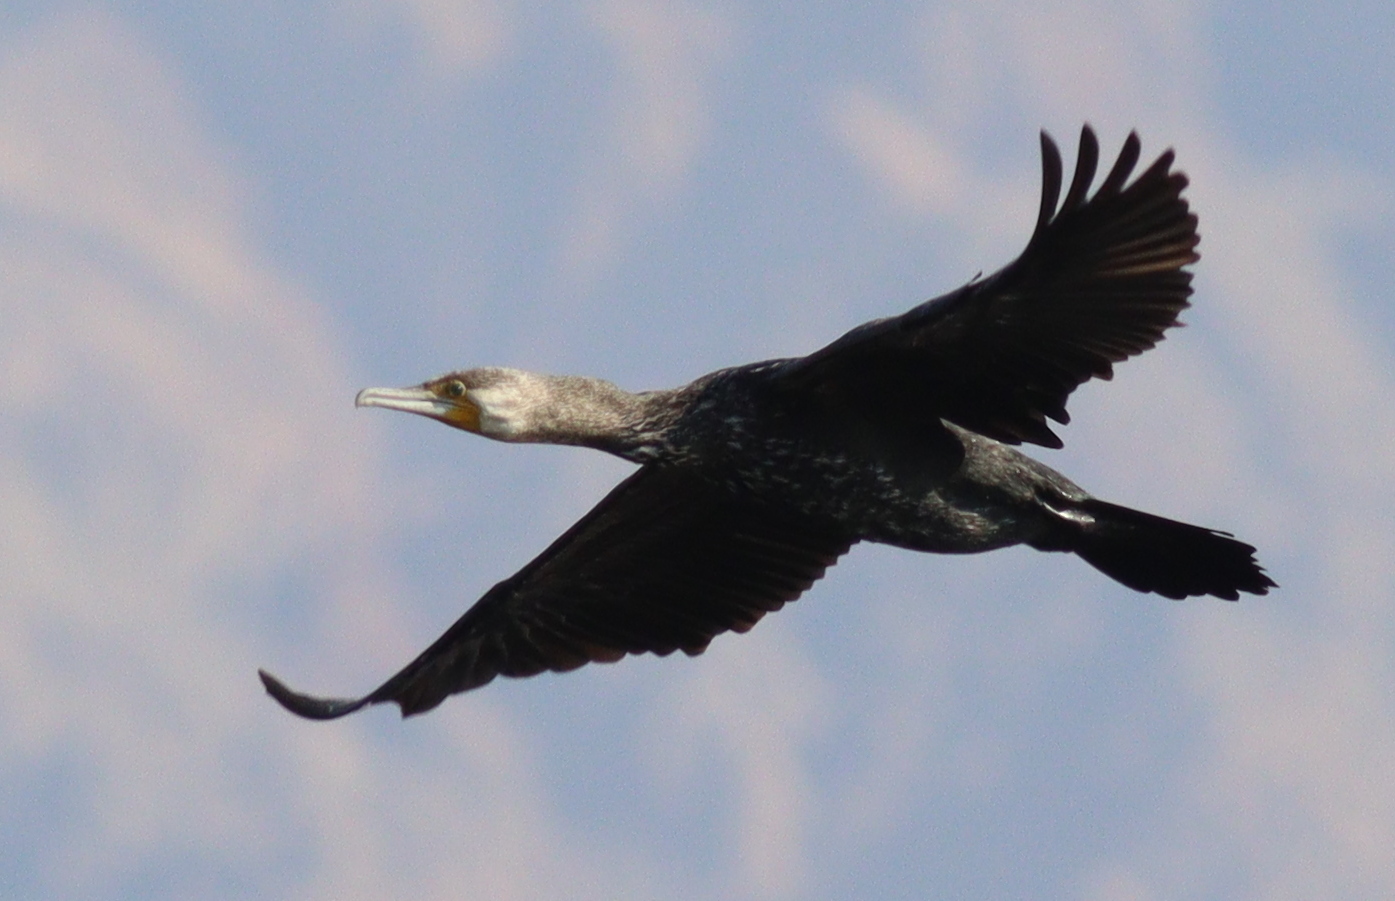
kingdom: Animalia
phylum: Chordata
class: Aves
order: Suliformes
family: Phalacrocoracidae
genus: Phalacrocorax
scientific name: Phalacrocorax carbo
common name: Great cormorant
